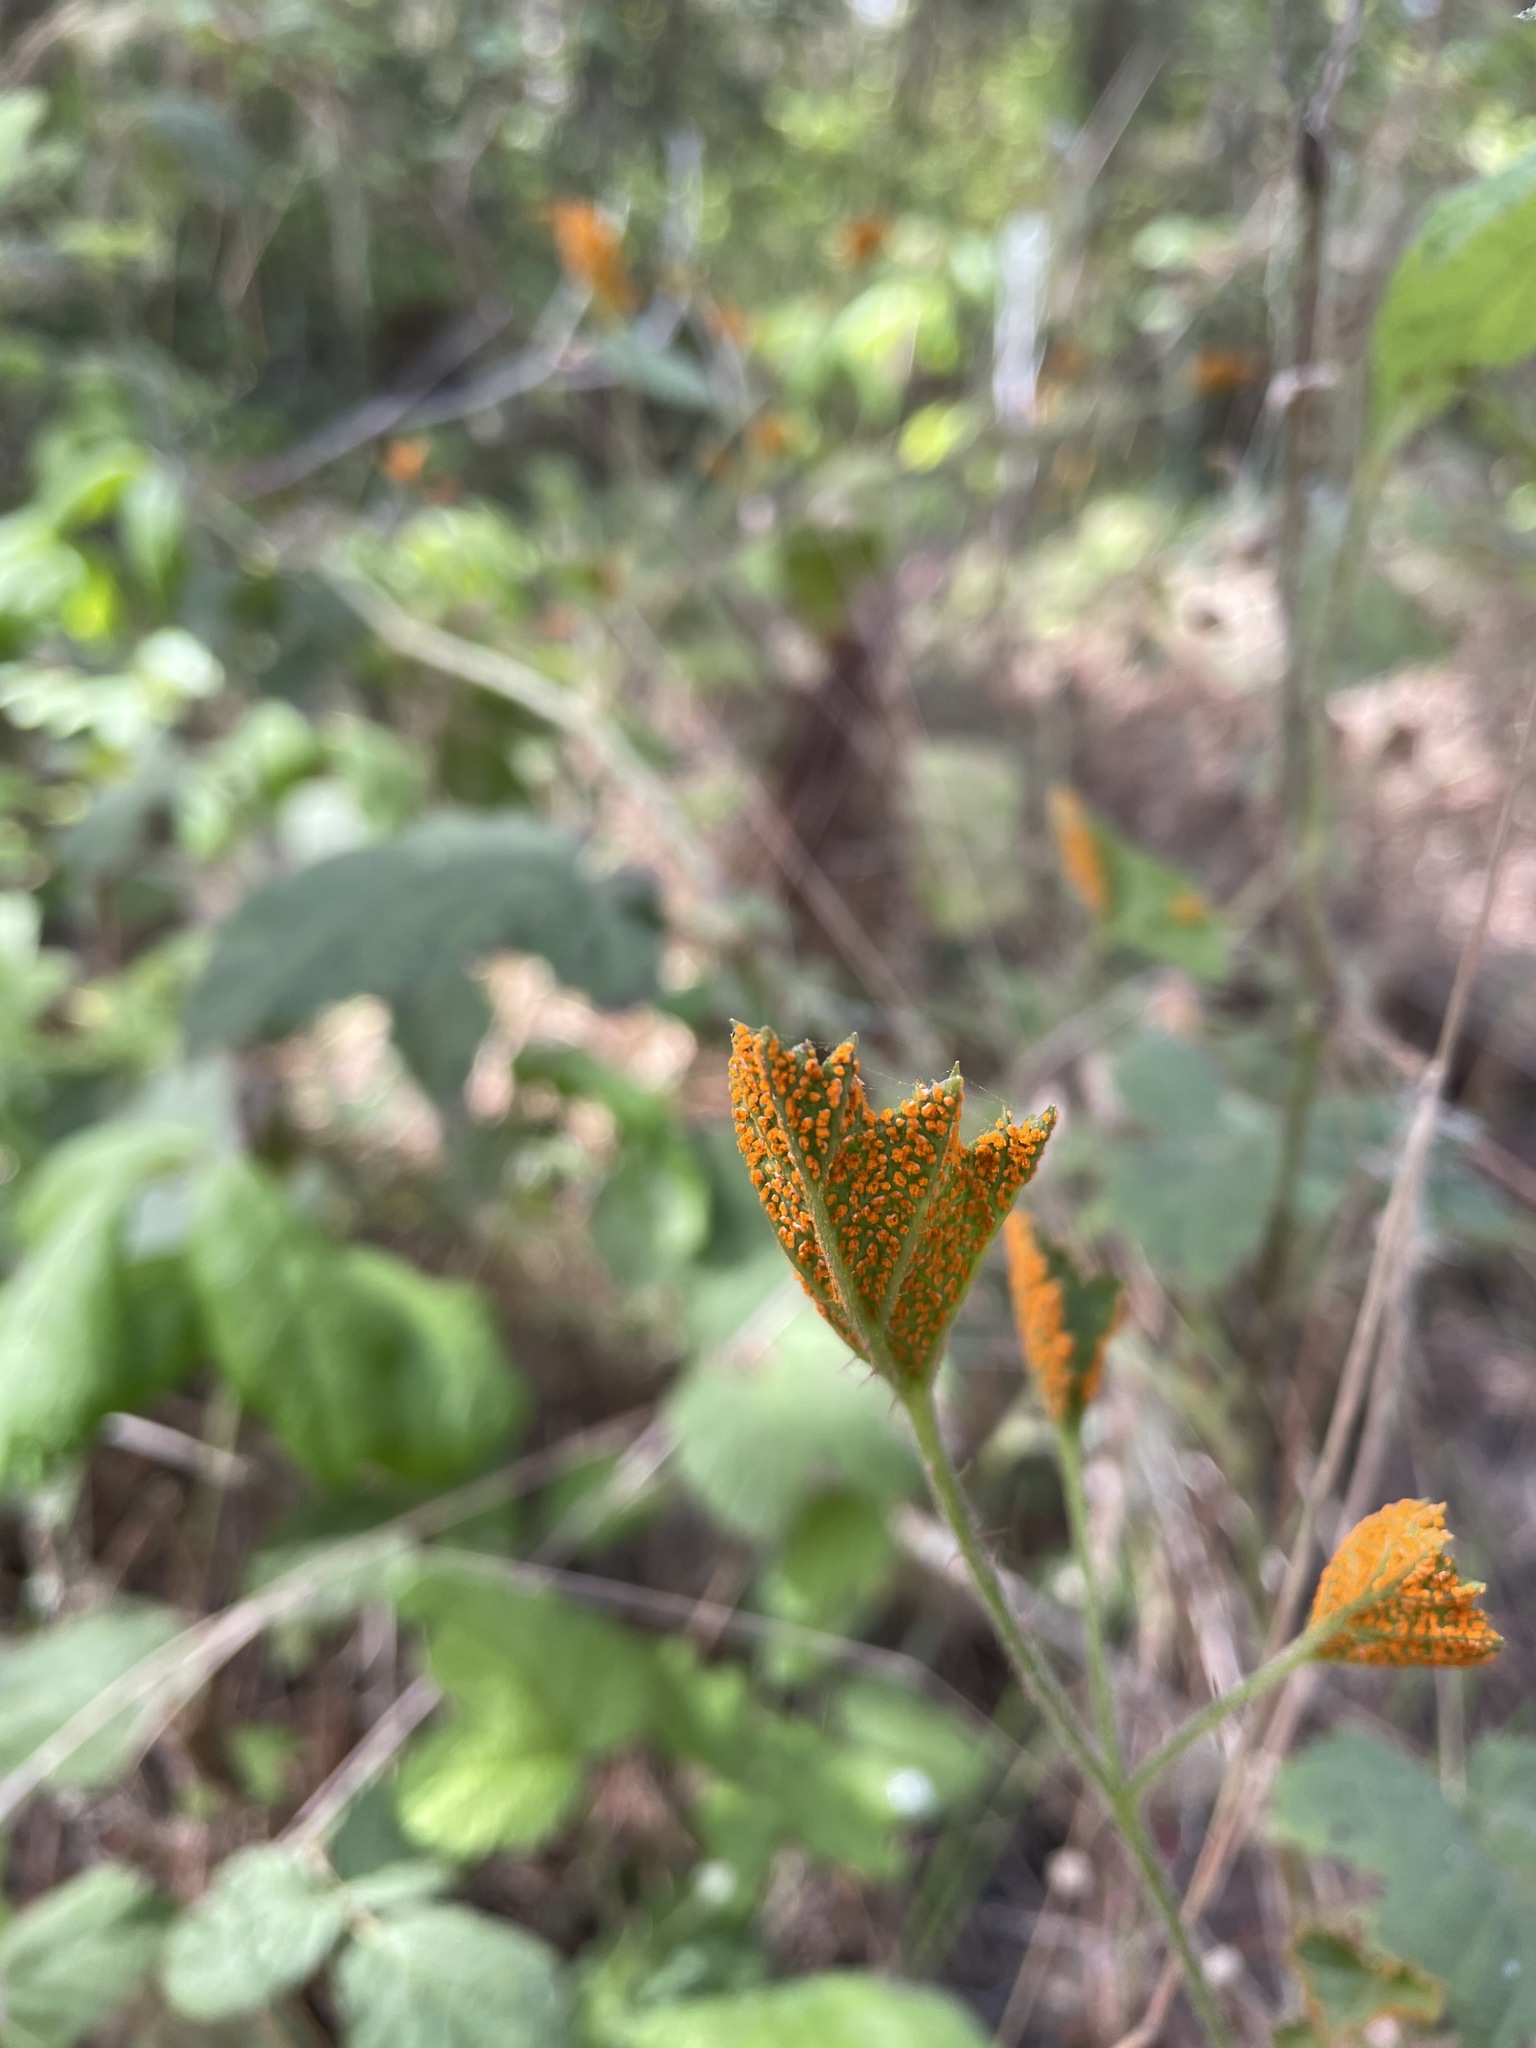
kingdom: Fungi
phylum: Basidiomycota
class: Pucciniomycetes
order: Pucciniales
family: Phragmidiaceae
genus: Arthuriomyces
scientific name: Arthuriomyces peckianus
